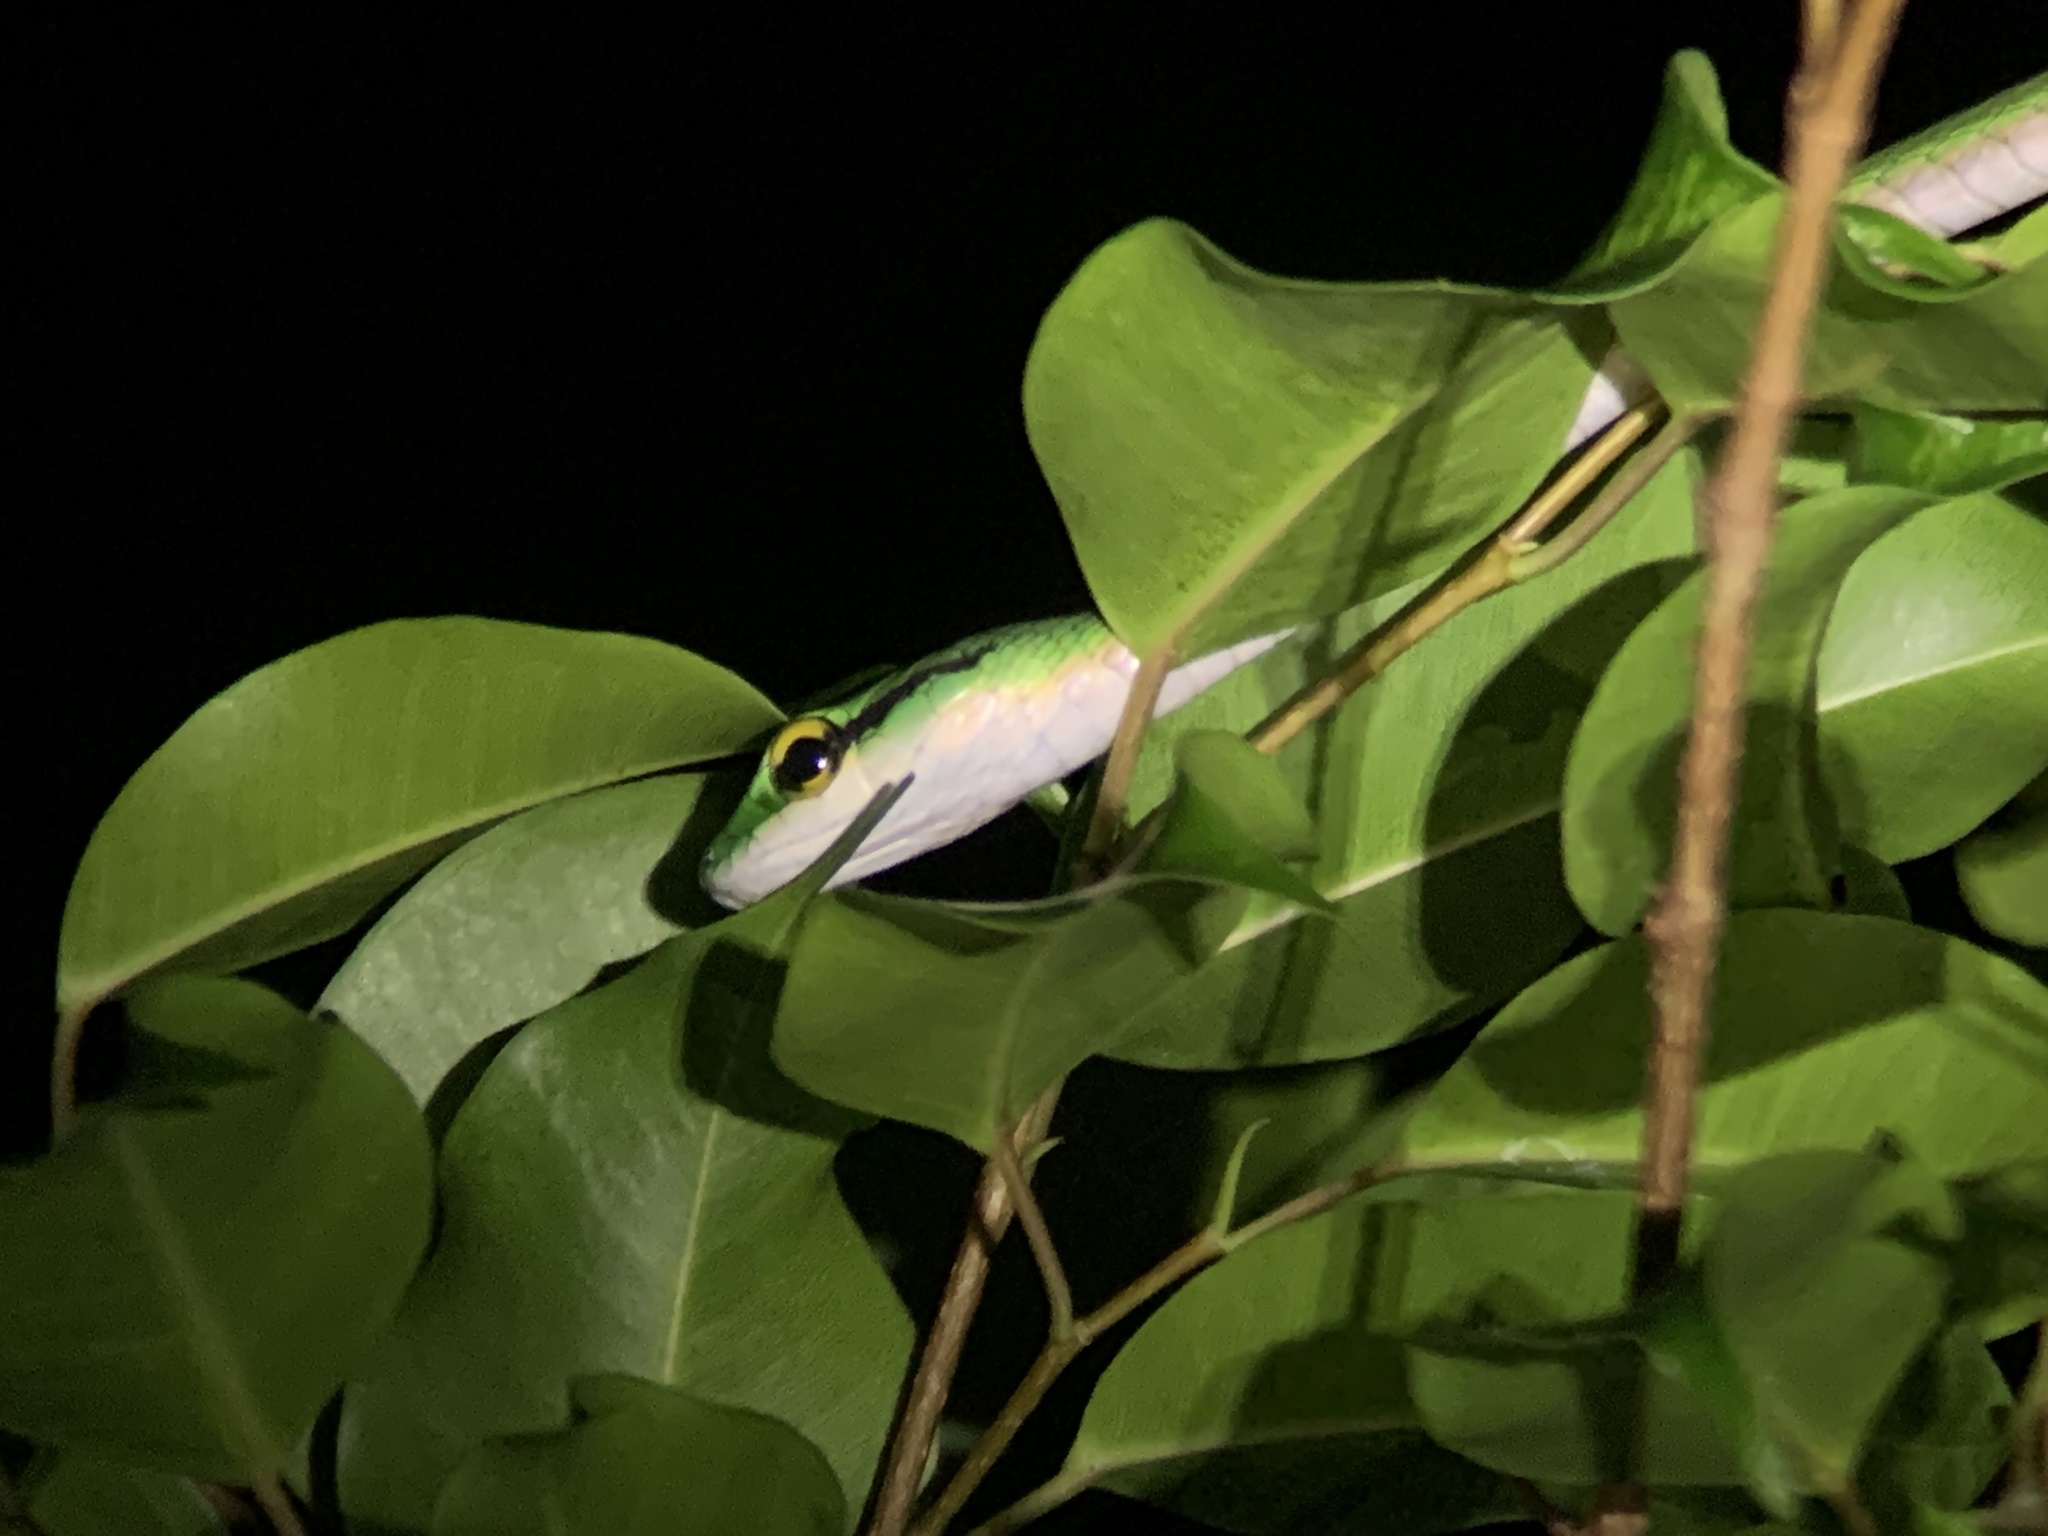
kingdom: Animalia
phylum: Chordata
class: Squamata
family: Colubridae
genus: Leptophis
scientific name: Leptophis ahaetulla
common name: Parrot snake
